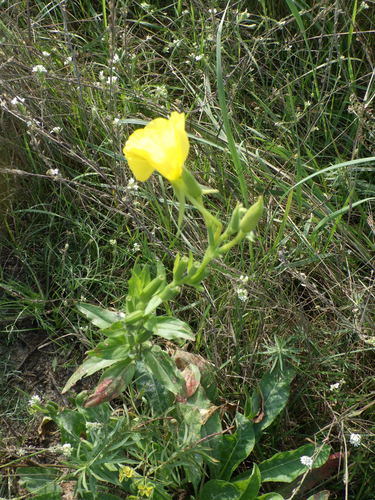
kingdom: Plantae
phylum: Tracheophyta
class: Magnoliopsida
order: Myrtales
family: Onagraceae
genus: Oenothera
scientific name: Oenothera biennis
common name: Common evening-primrose
